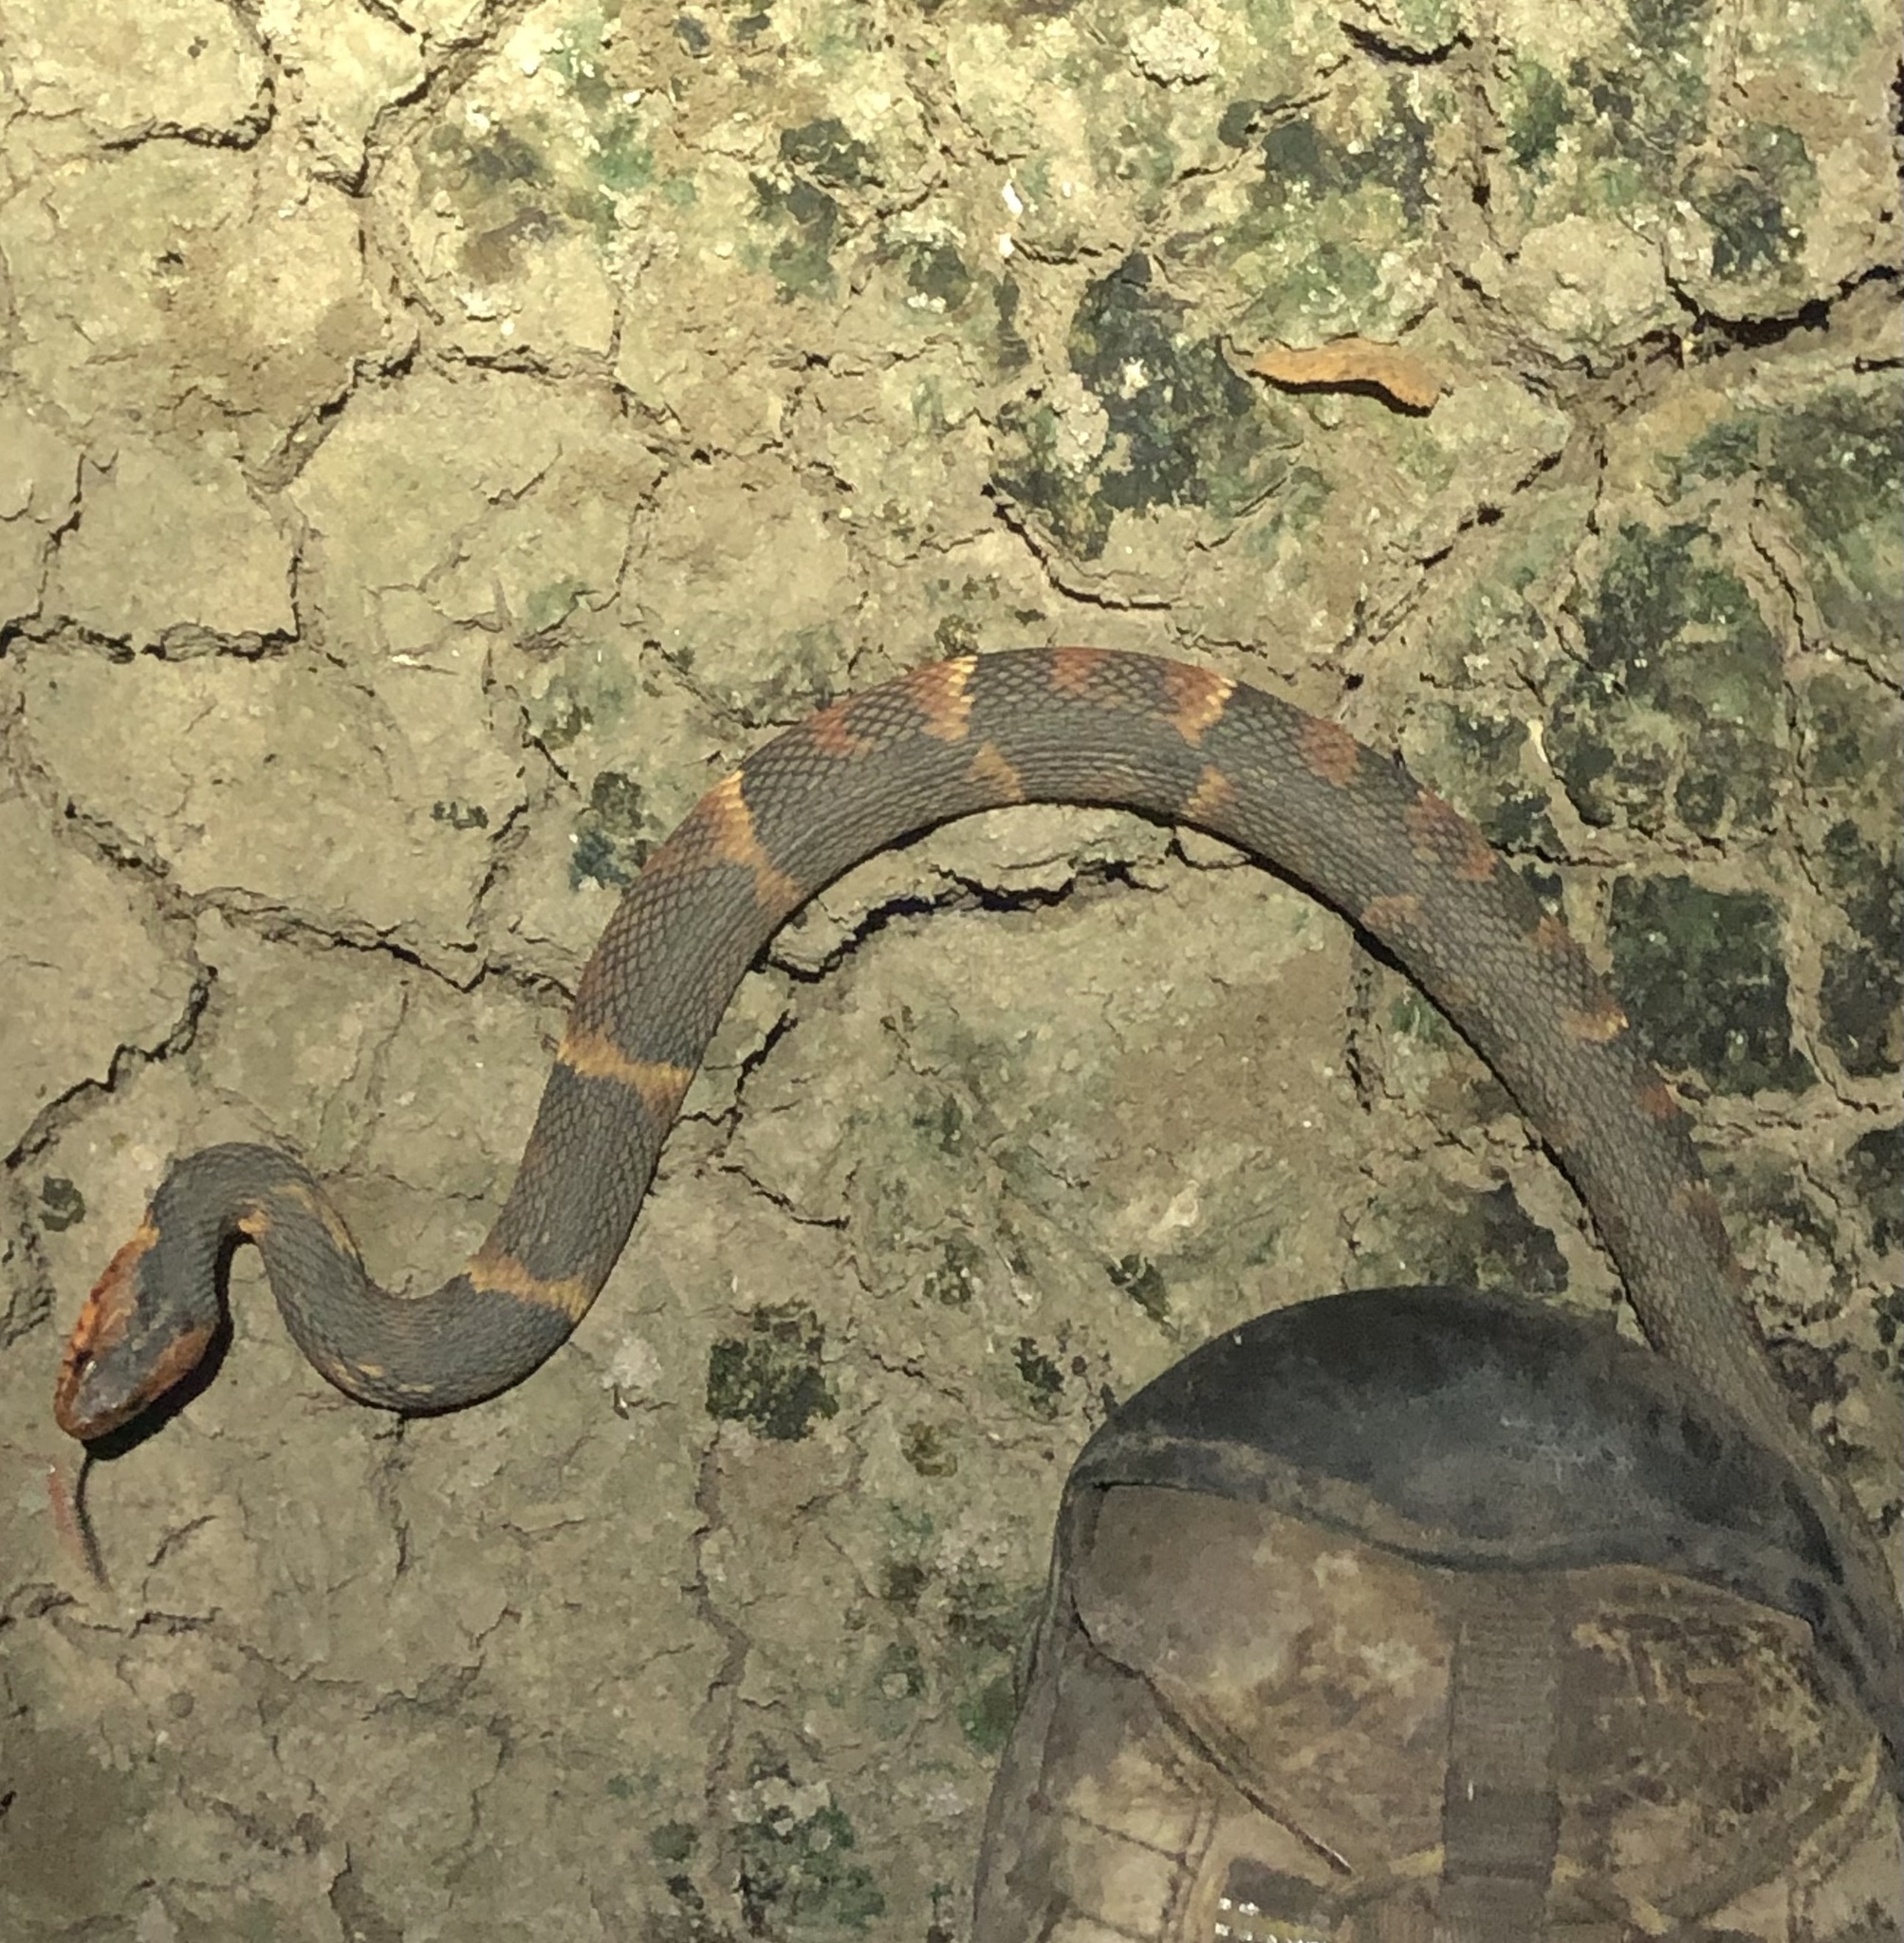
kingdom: Animalia
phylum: Chordata
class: Squamata
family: Colubridae
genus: Nerodia
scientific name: Nerodia fasciata
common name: Southern water snake
